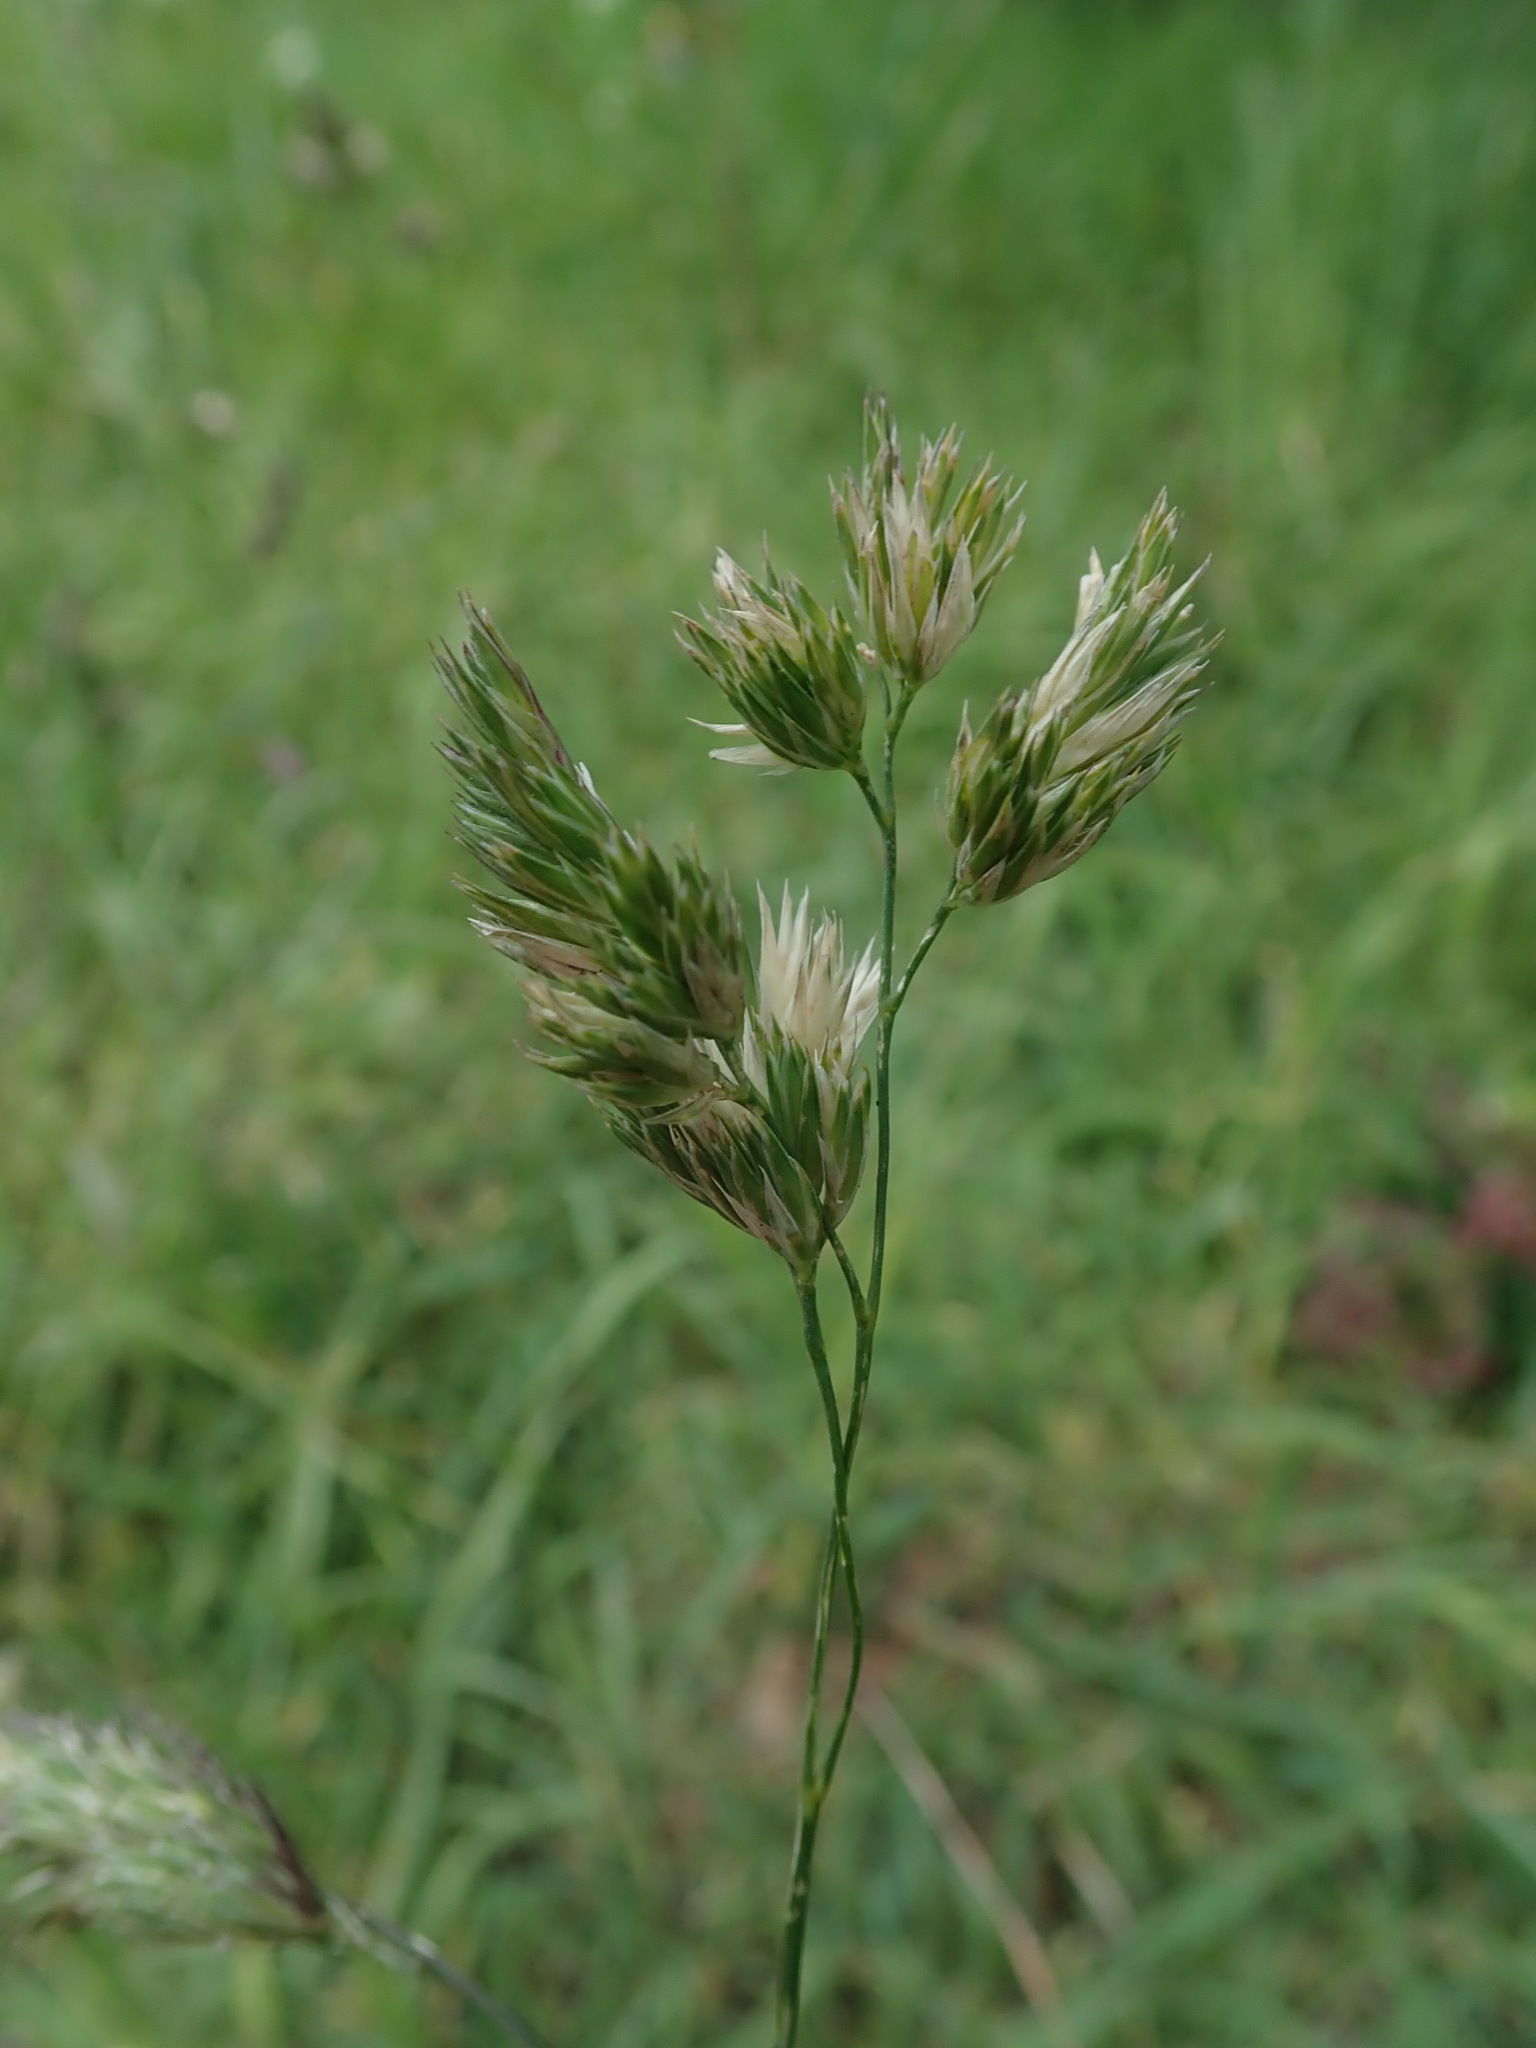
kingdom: Plantae
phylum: Tracheophyta
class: Liliopsida
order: Poales
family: Poaceae
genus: Dactylis
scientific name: Dactylis glomerata
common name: Orchardgrass
